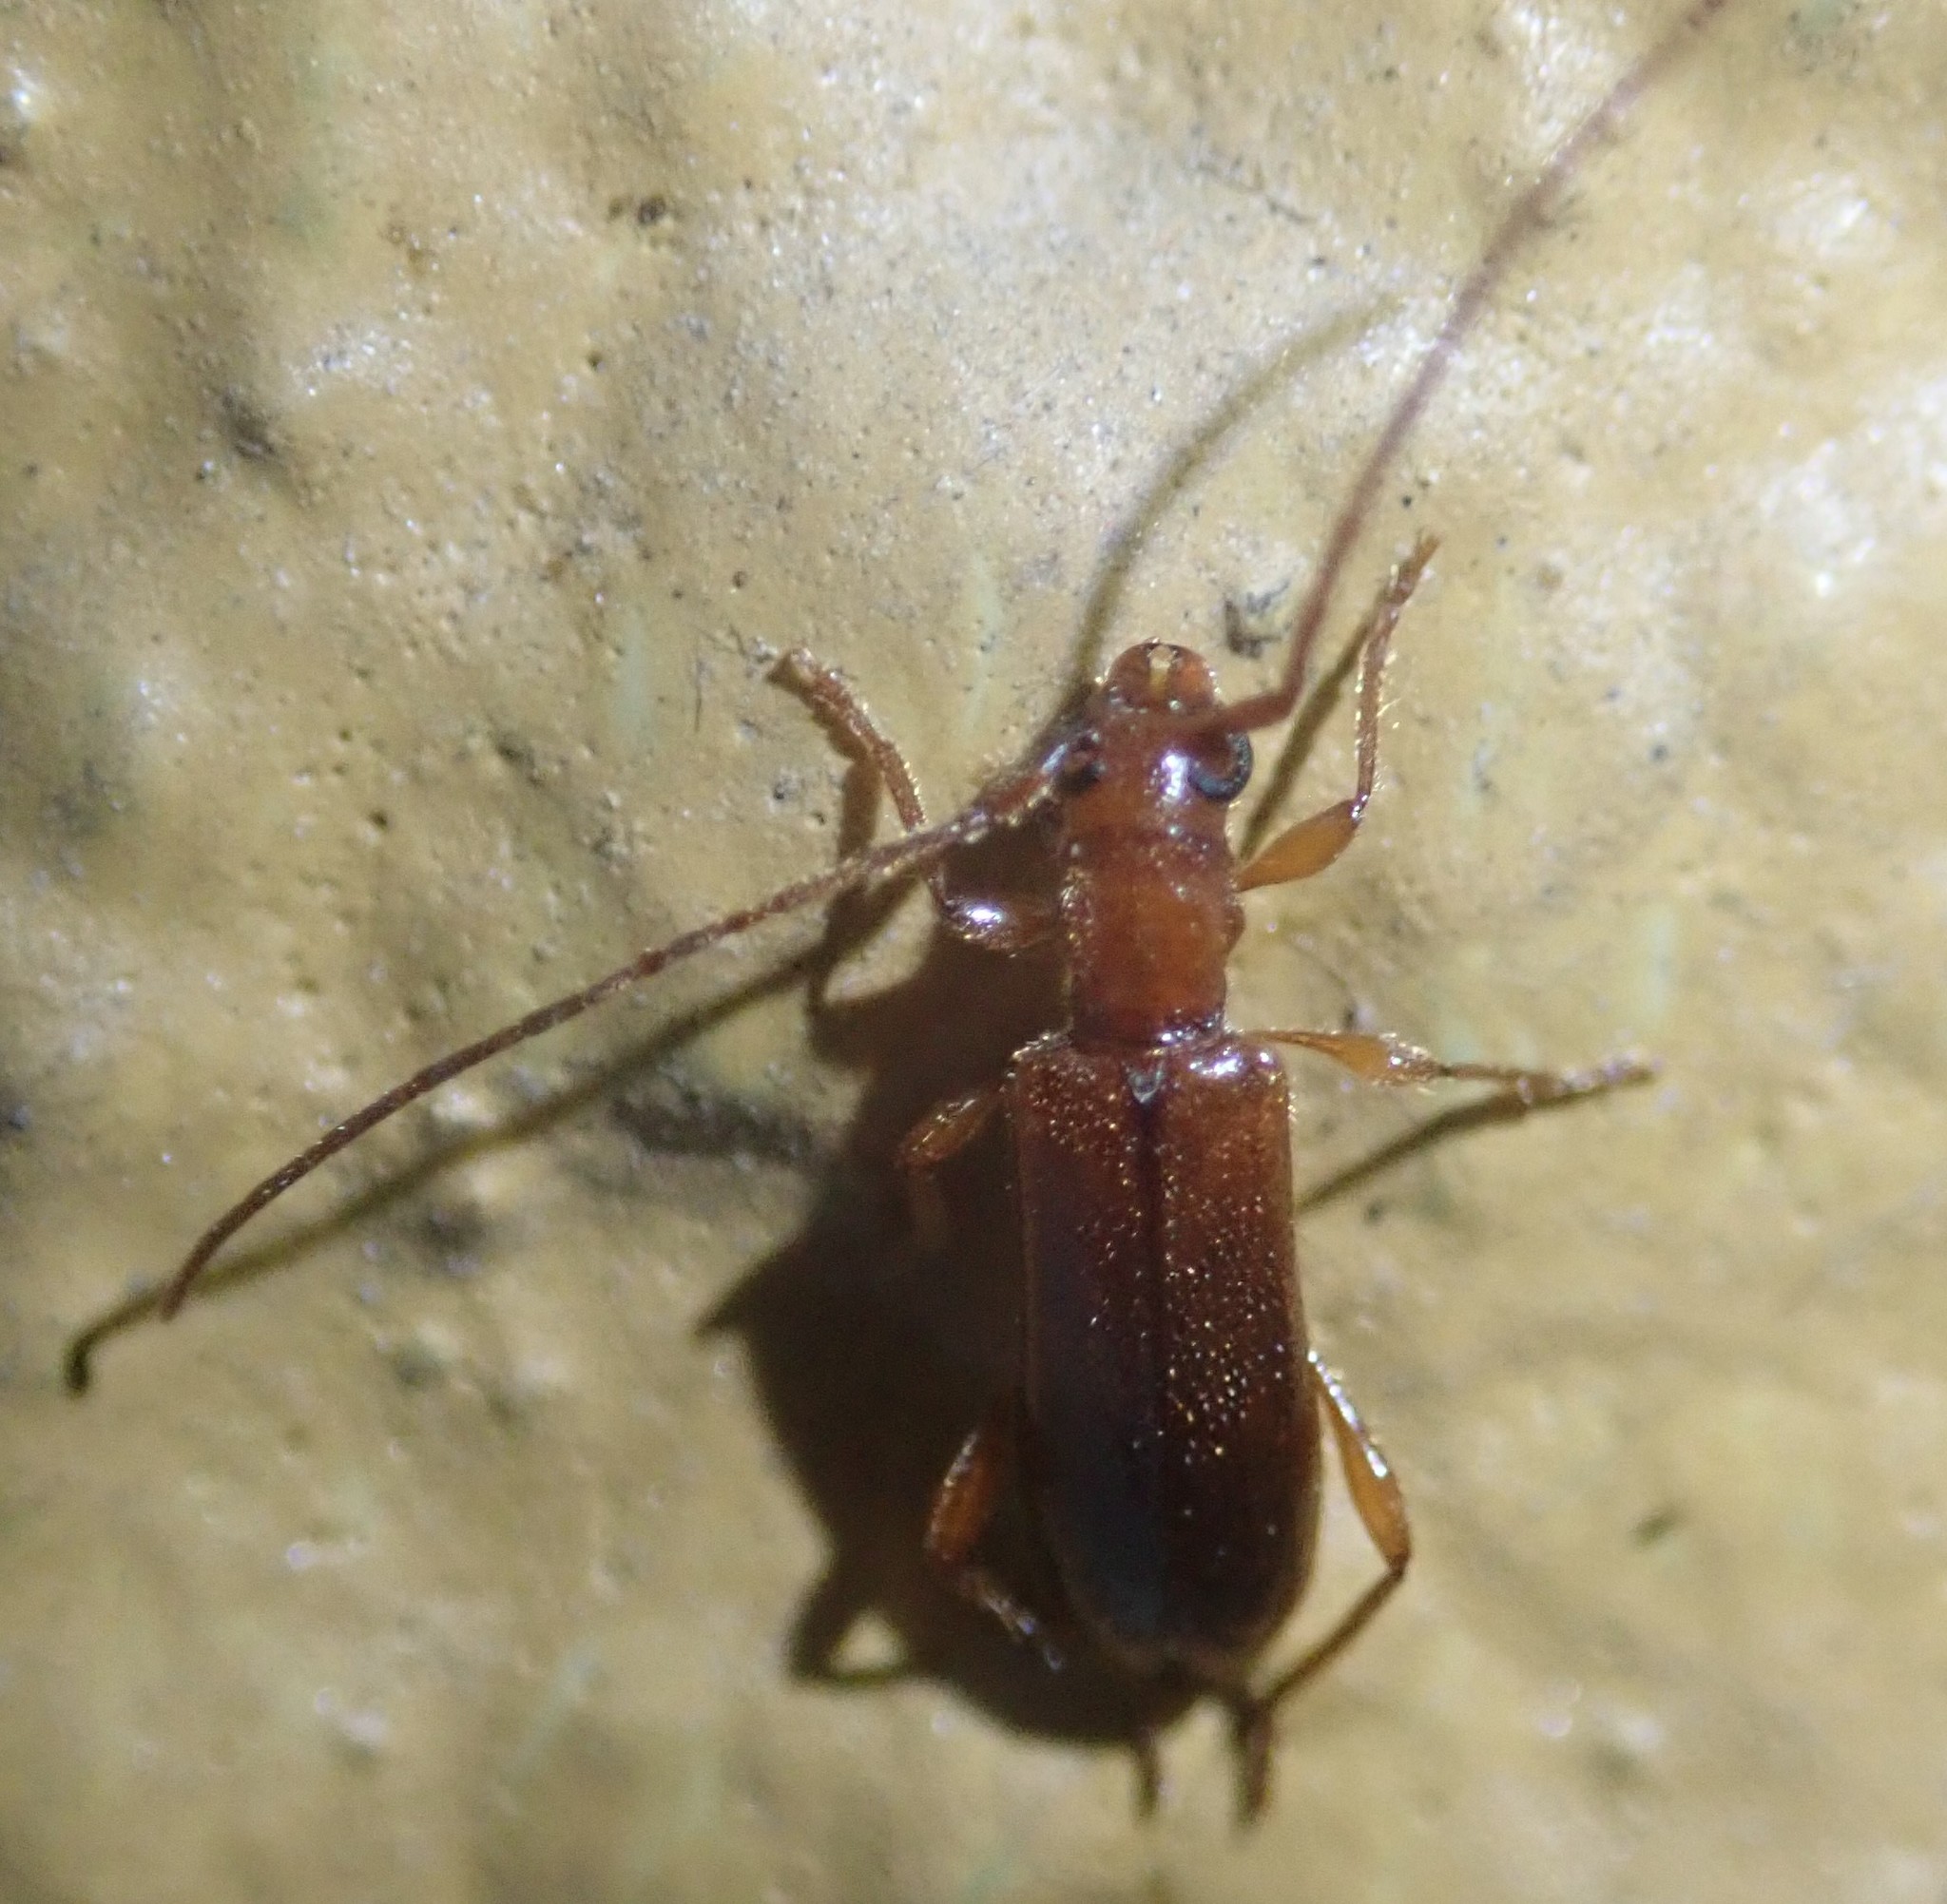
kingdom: Animalia
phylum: Arthropoda
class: Insecta
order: Coleoptera
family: Cerambycidae
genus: Obrium
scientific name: Obrium brunneum
